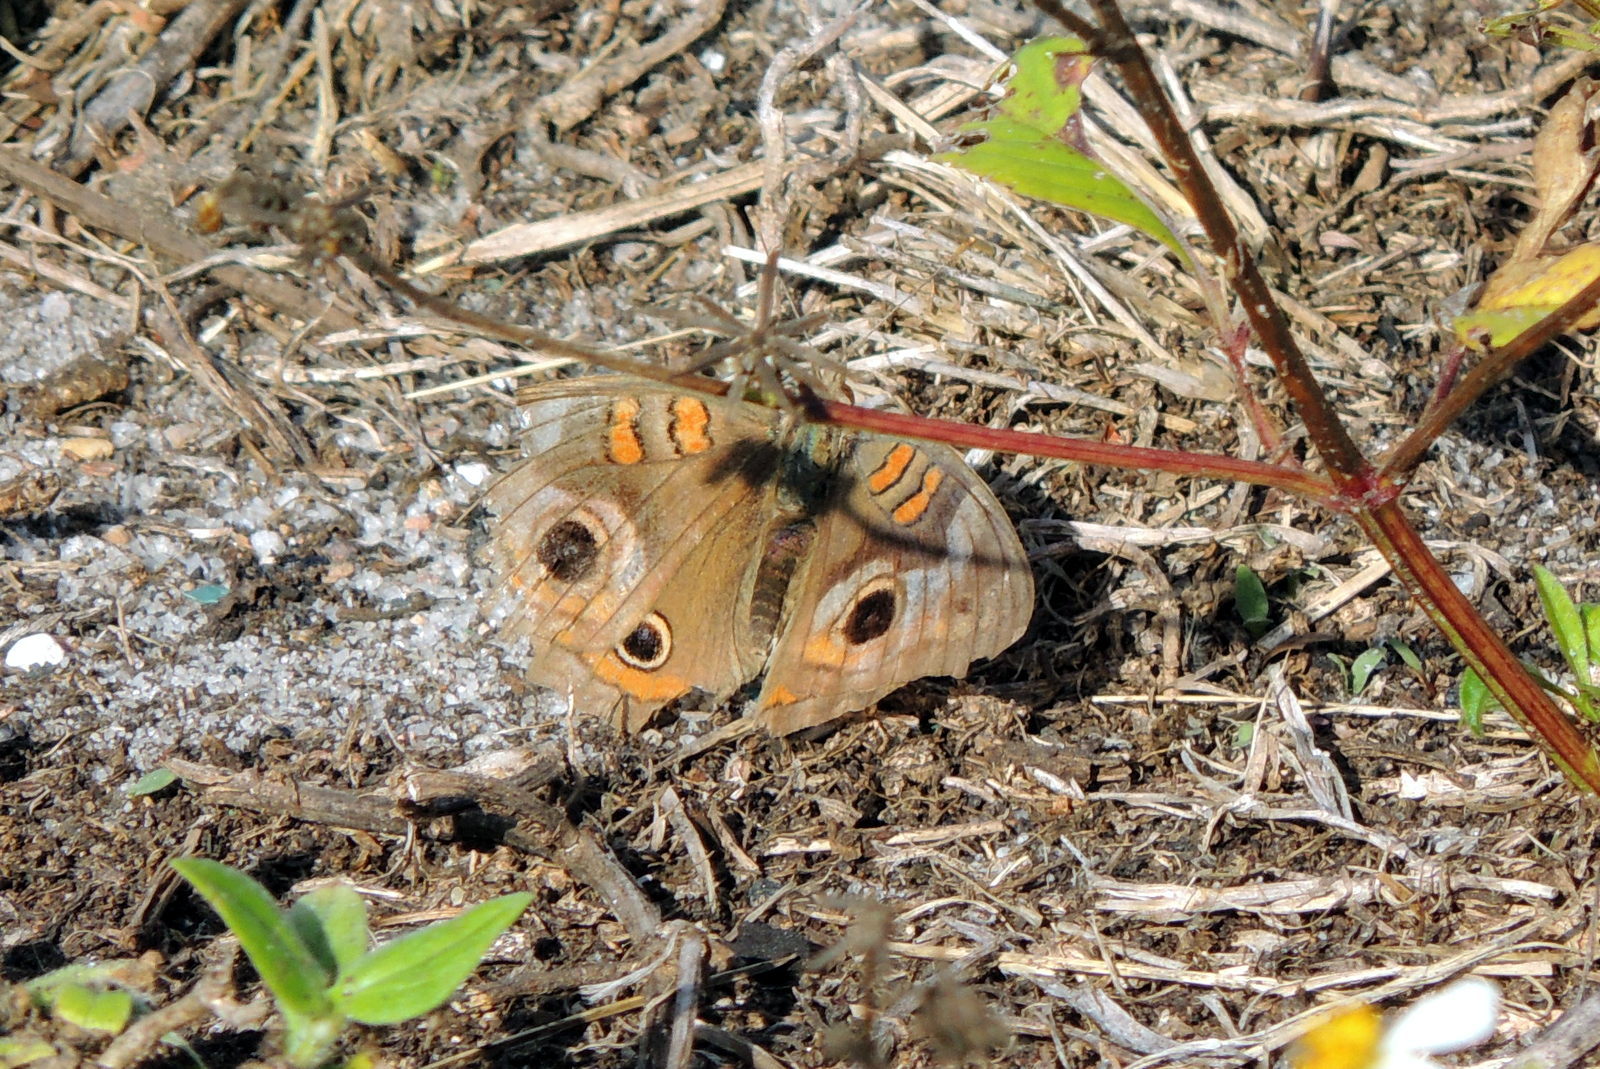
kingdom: Animalia
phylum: Arthropoda
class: Insecta
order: Lepidoptera
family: Nymphalidae
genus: Junonia
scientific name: Junonia coenia
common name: Common buckeye
